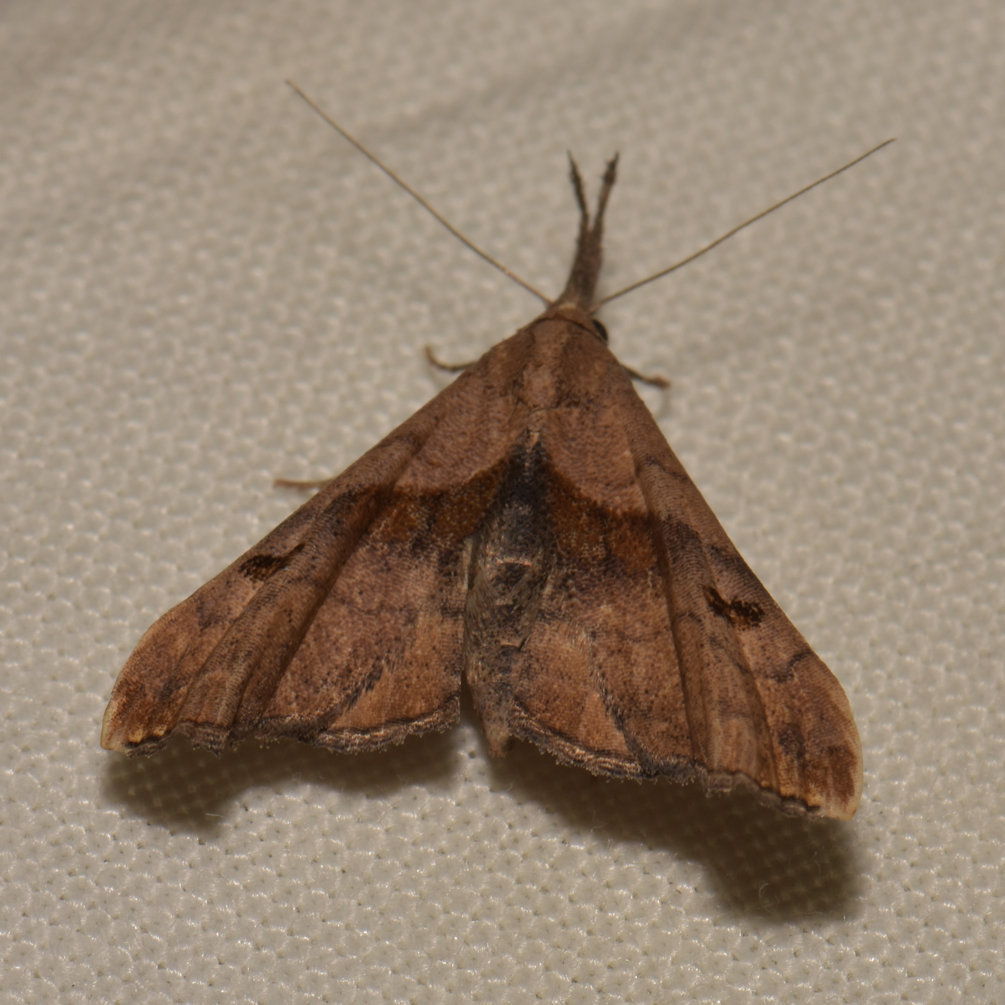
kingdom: Animalia
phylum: Arthropoda
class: Insecta
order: Lepidoptera
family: Erebidae
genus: Palthis
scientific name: Palthis angulalis
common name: Dark-spotted palthis moth
